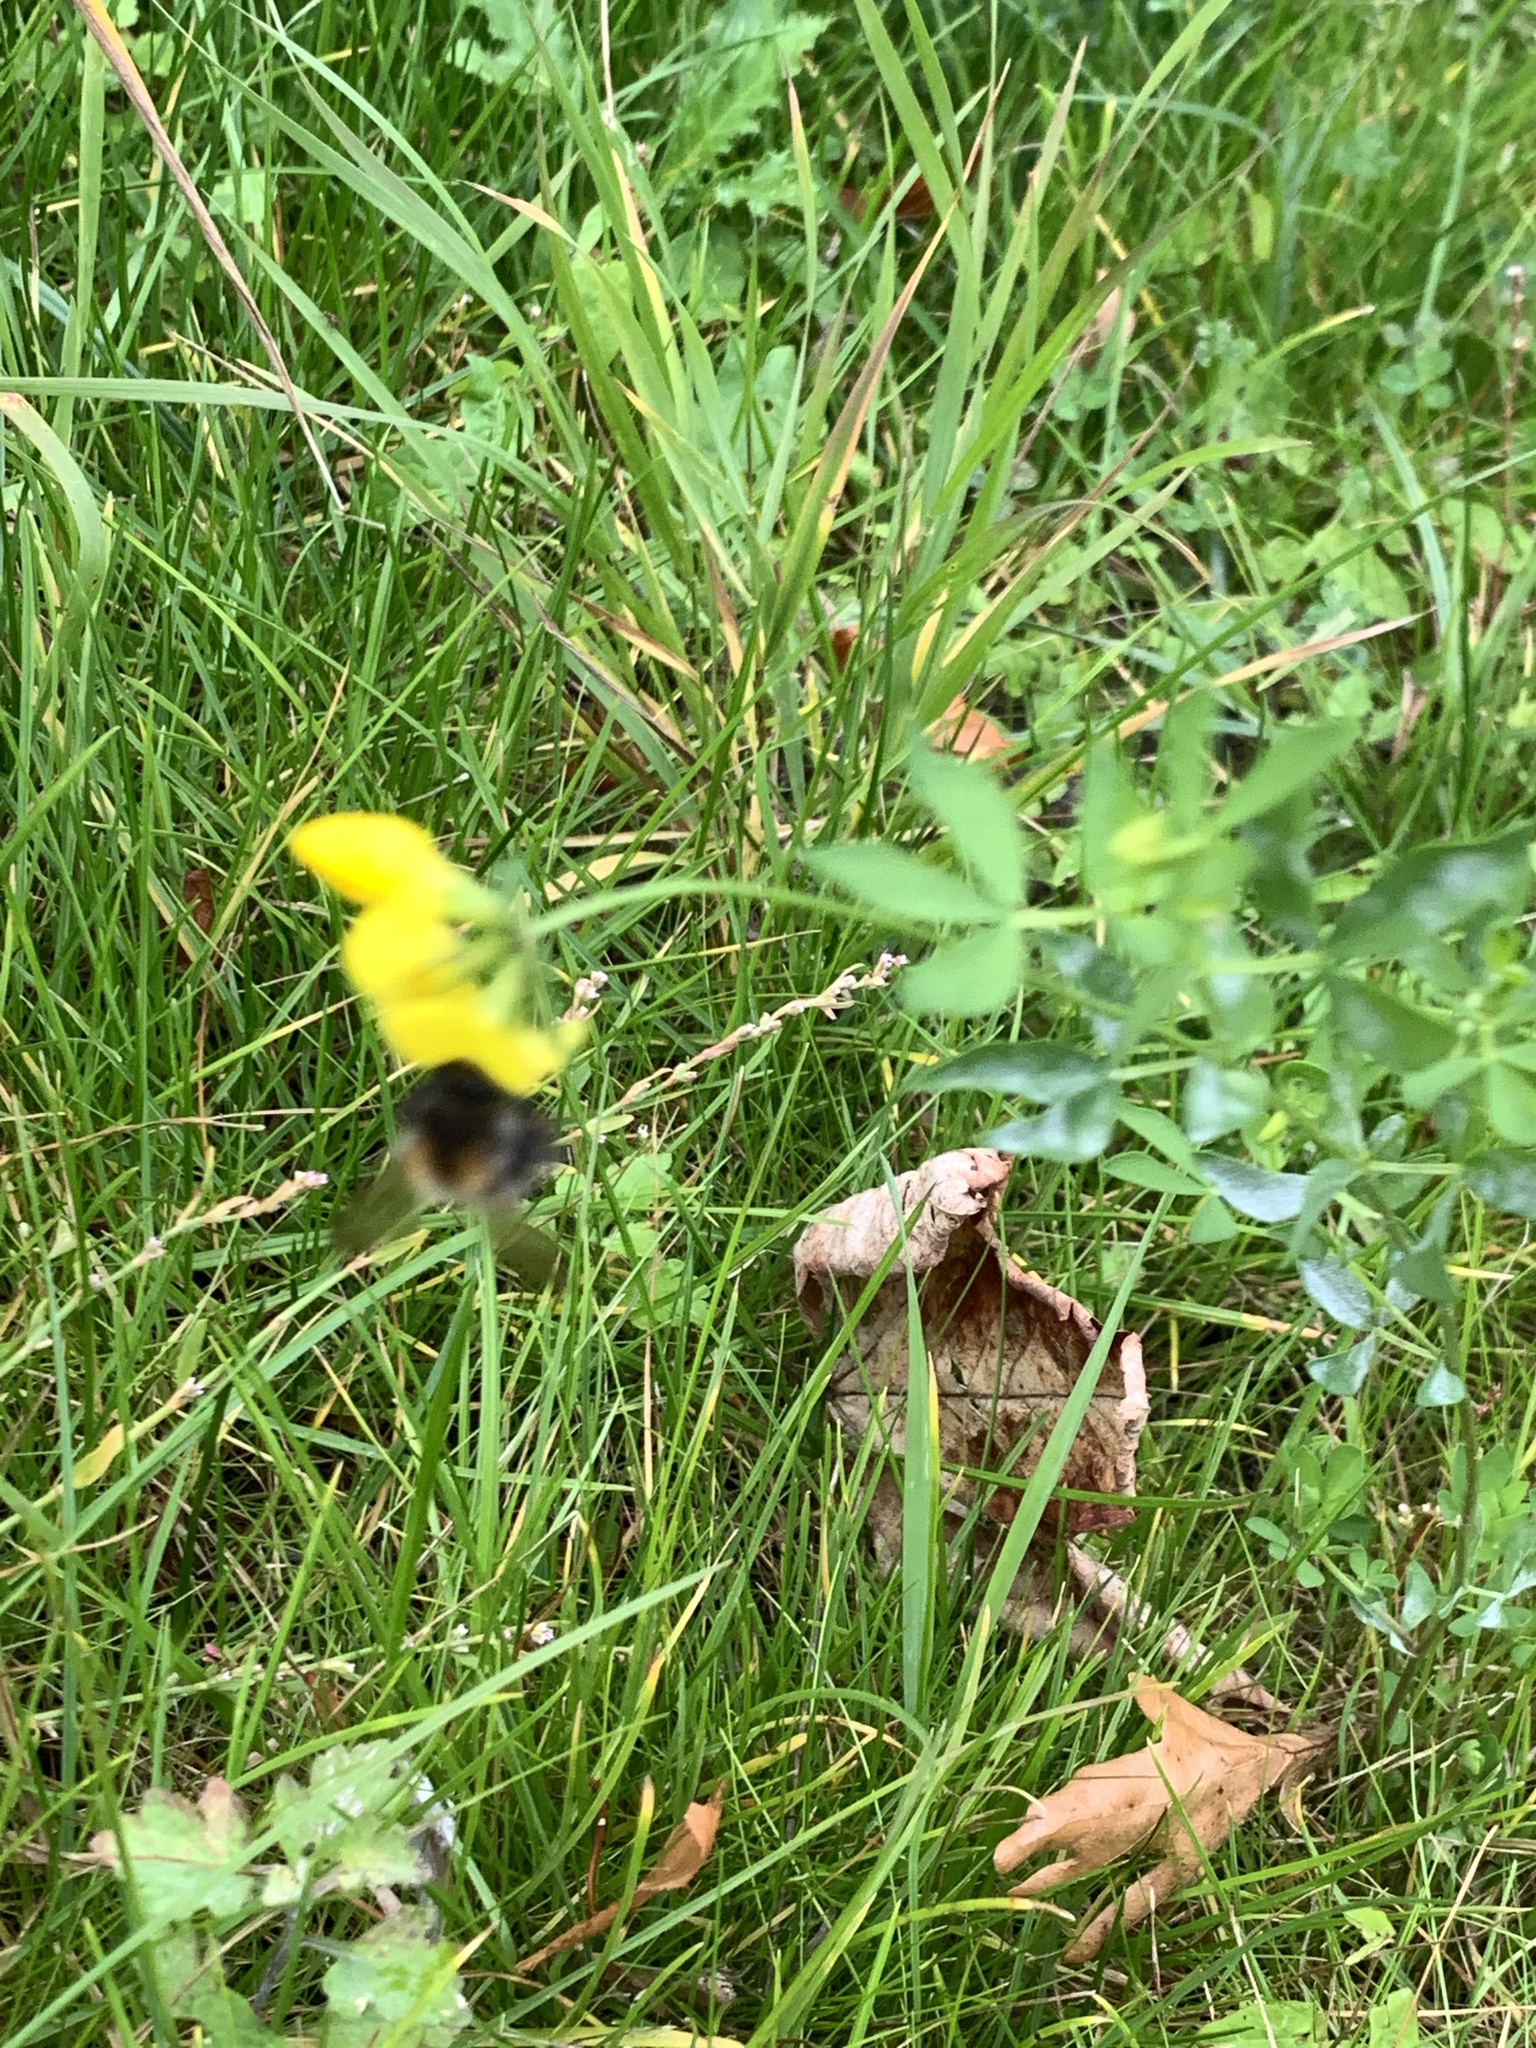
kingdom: Animalia
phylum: Arthropoda
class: Insecta
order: Hymenoptera
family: Apidae
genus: Bombus
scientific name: Bombus pascuorum
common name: Common carder bee
